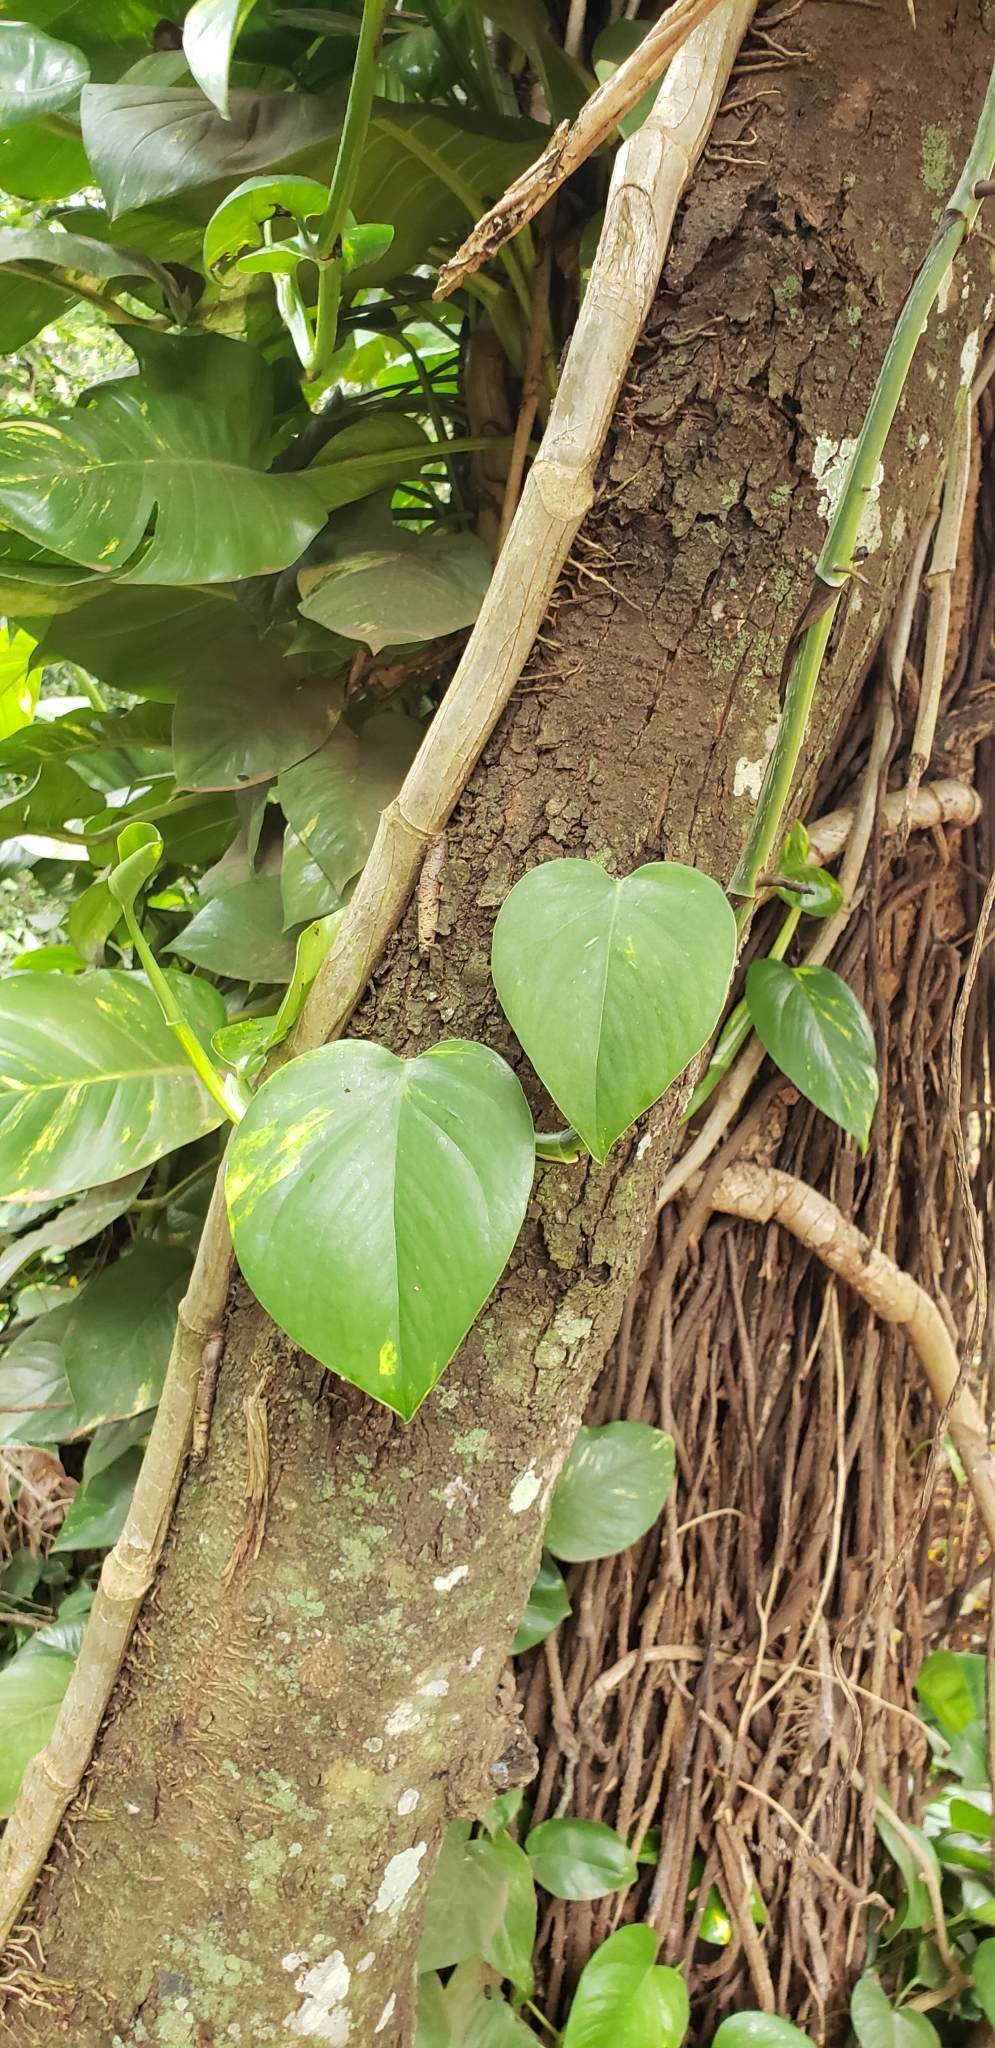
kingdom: Plantae
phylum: Tracheophyta
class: Liliopsida
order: Alismatales
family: Araceae
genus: Epipremnum
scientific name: Epipremnum aureum
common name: Golden hunter's-robe
